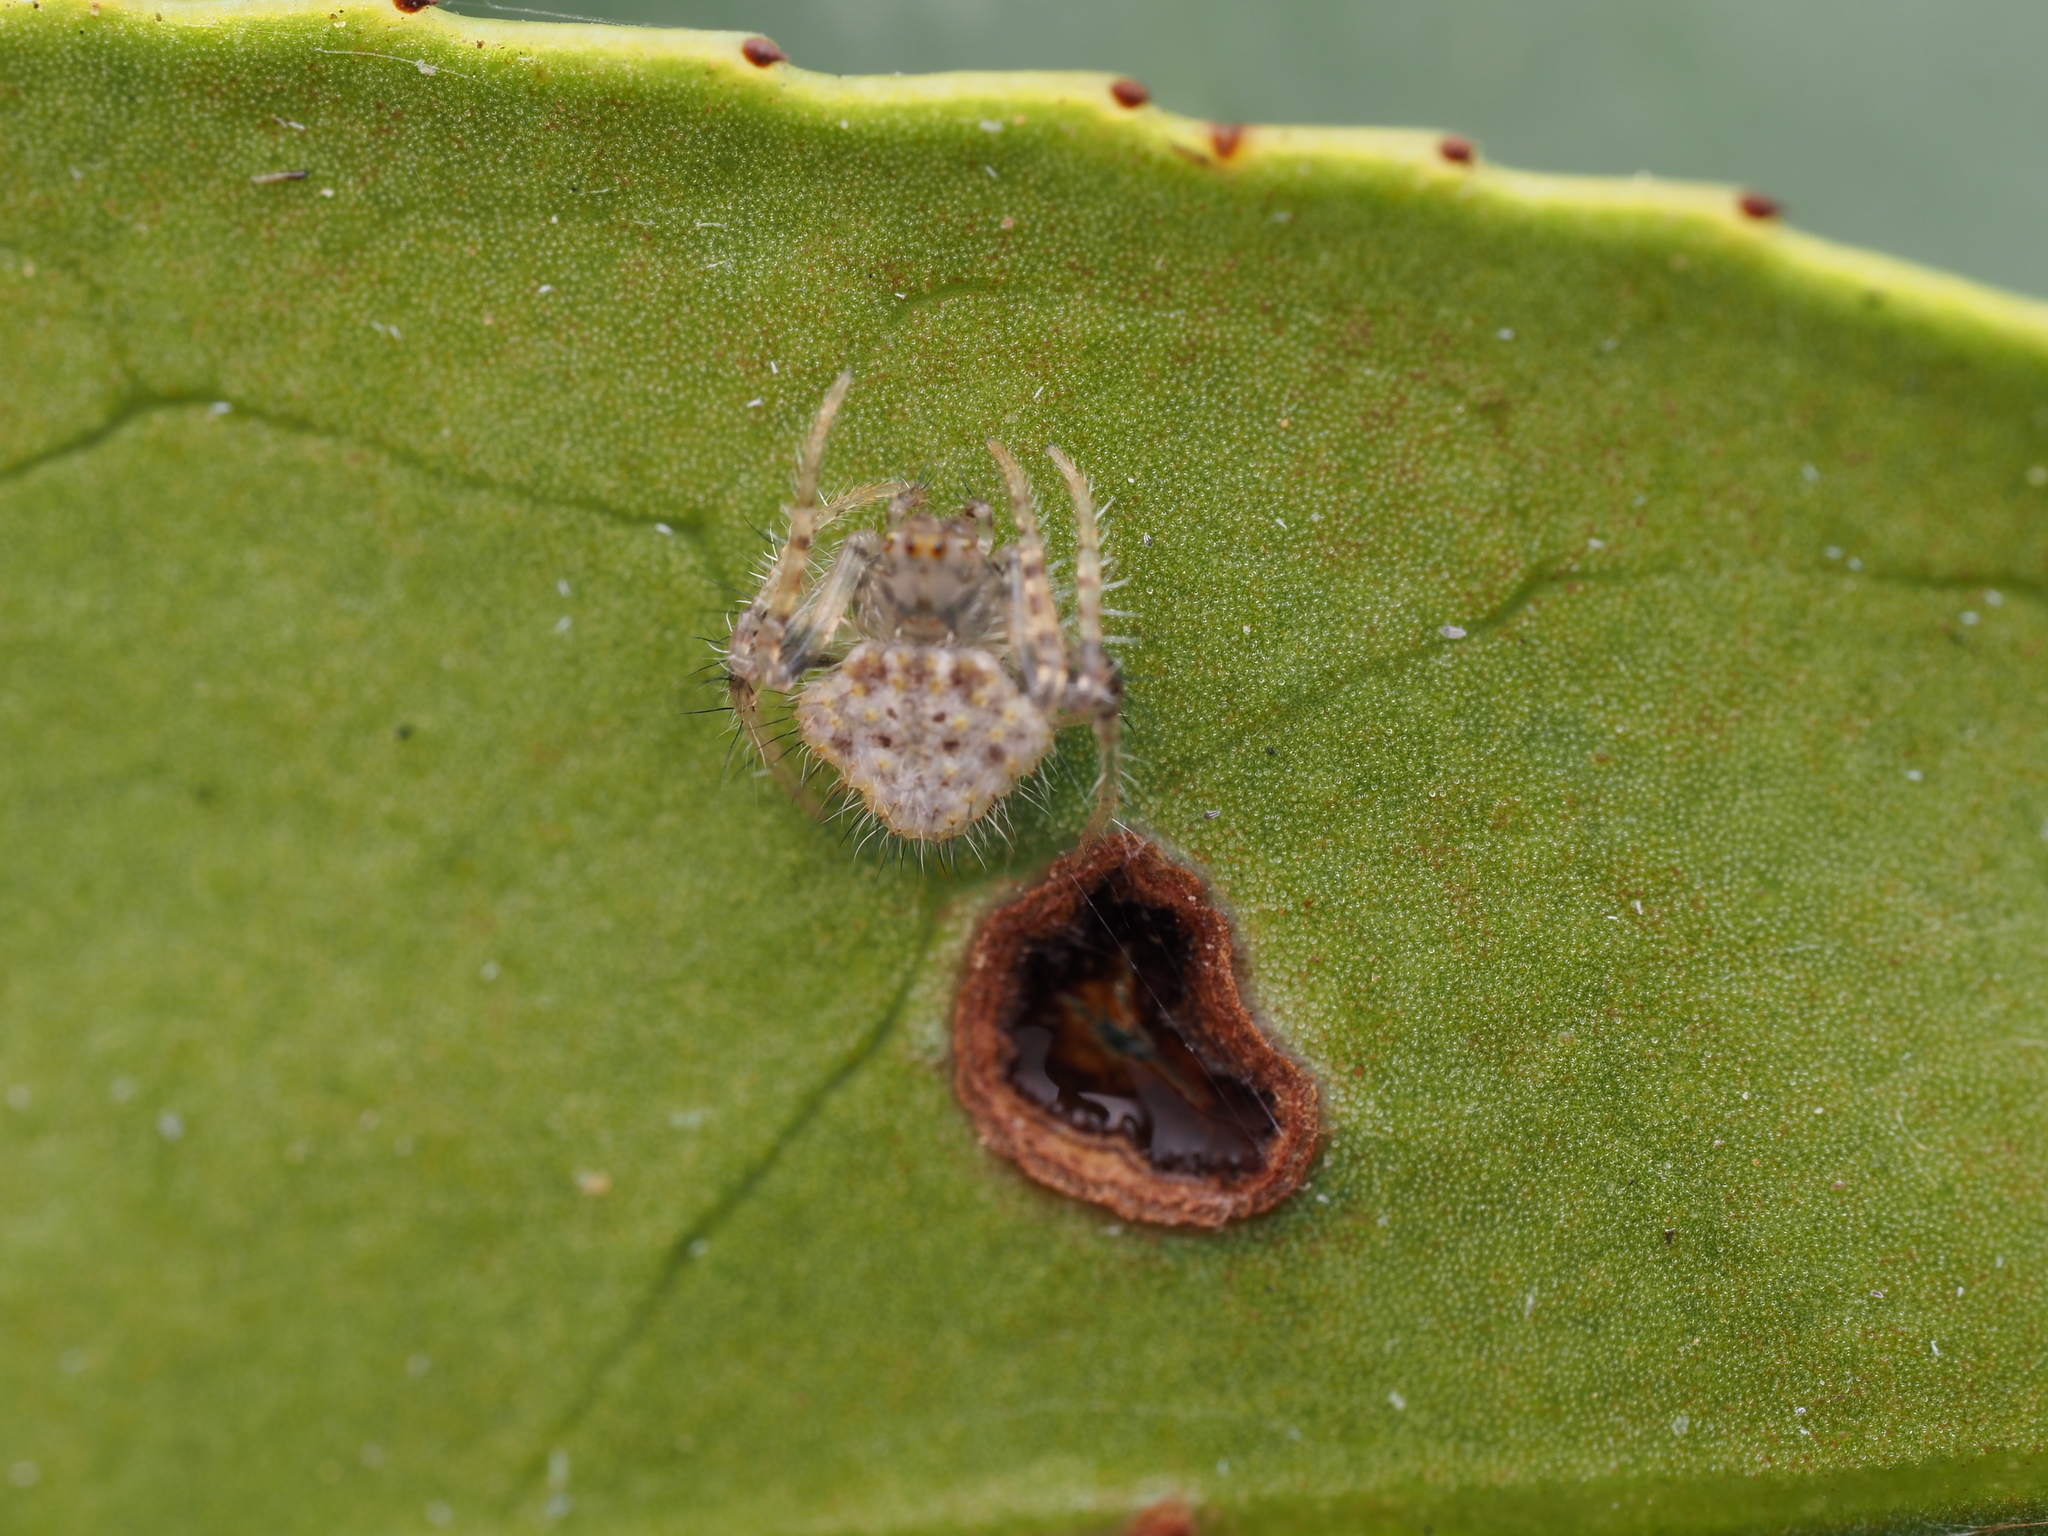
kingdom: Animalia
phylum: Arthropoda
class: Arachnida
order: Araneae
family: Araneidae
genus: Poecilopachys
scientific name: Poecilopachys australasia
